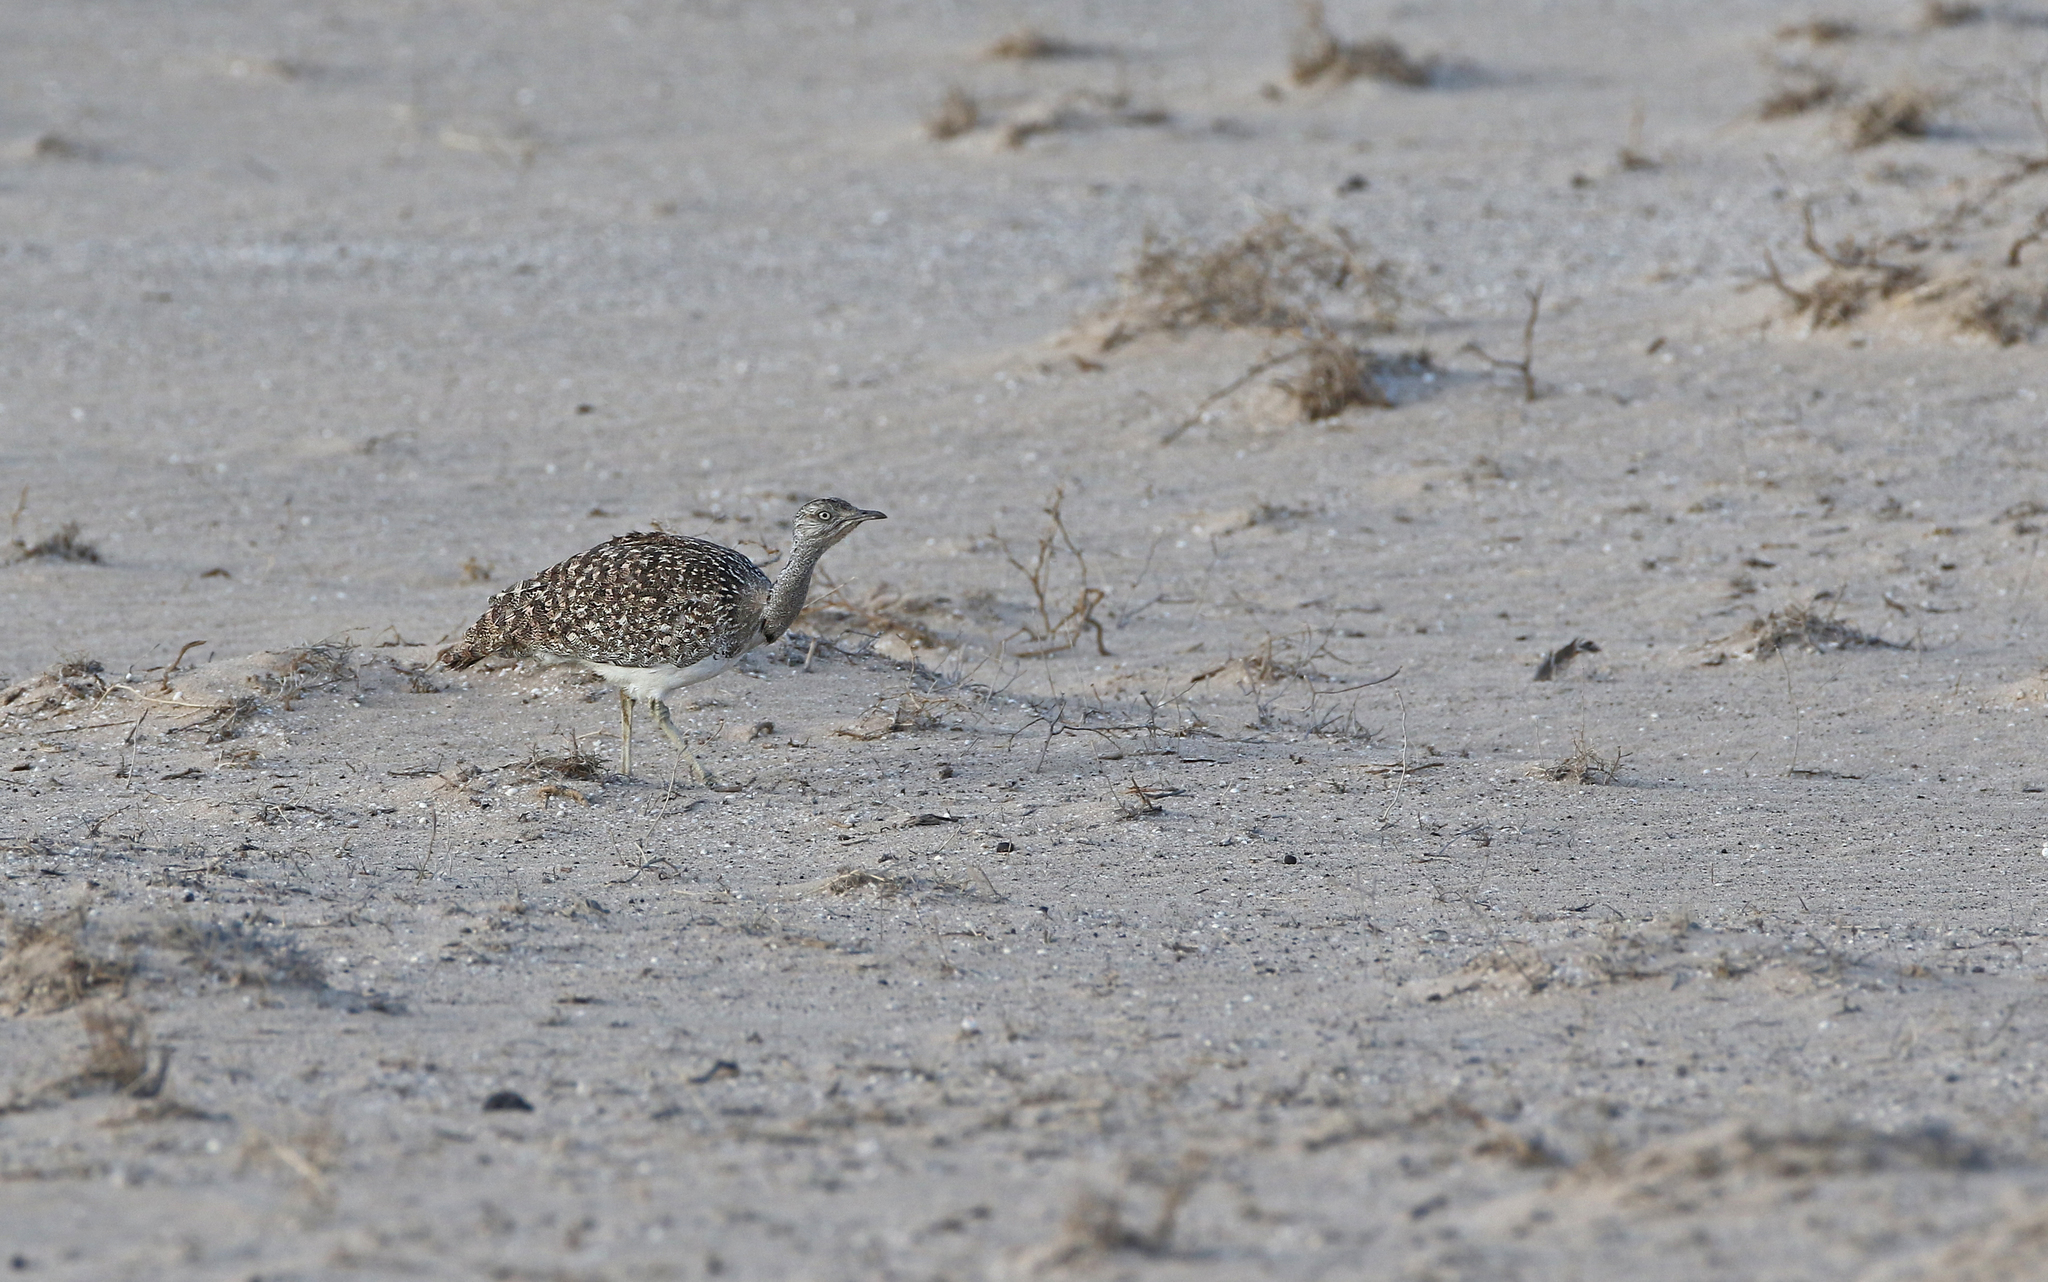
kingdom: Animalia
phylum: Chordata
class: Aves
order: Otidiformes
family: Otididae
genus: Chlamydotis
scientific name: Chlamydotis undulata
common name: Houbara bustard
